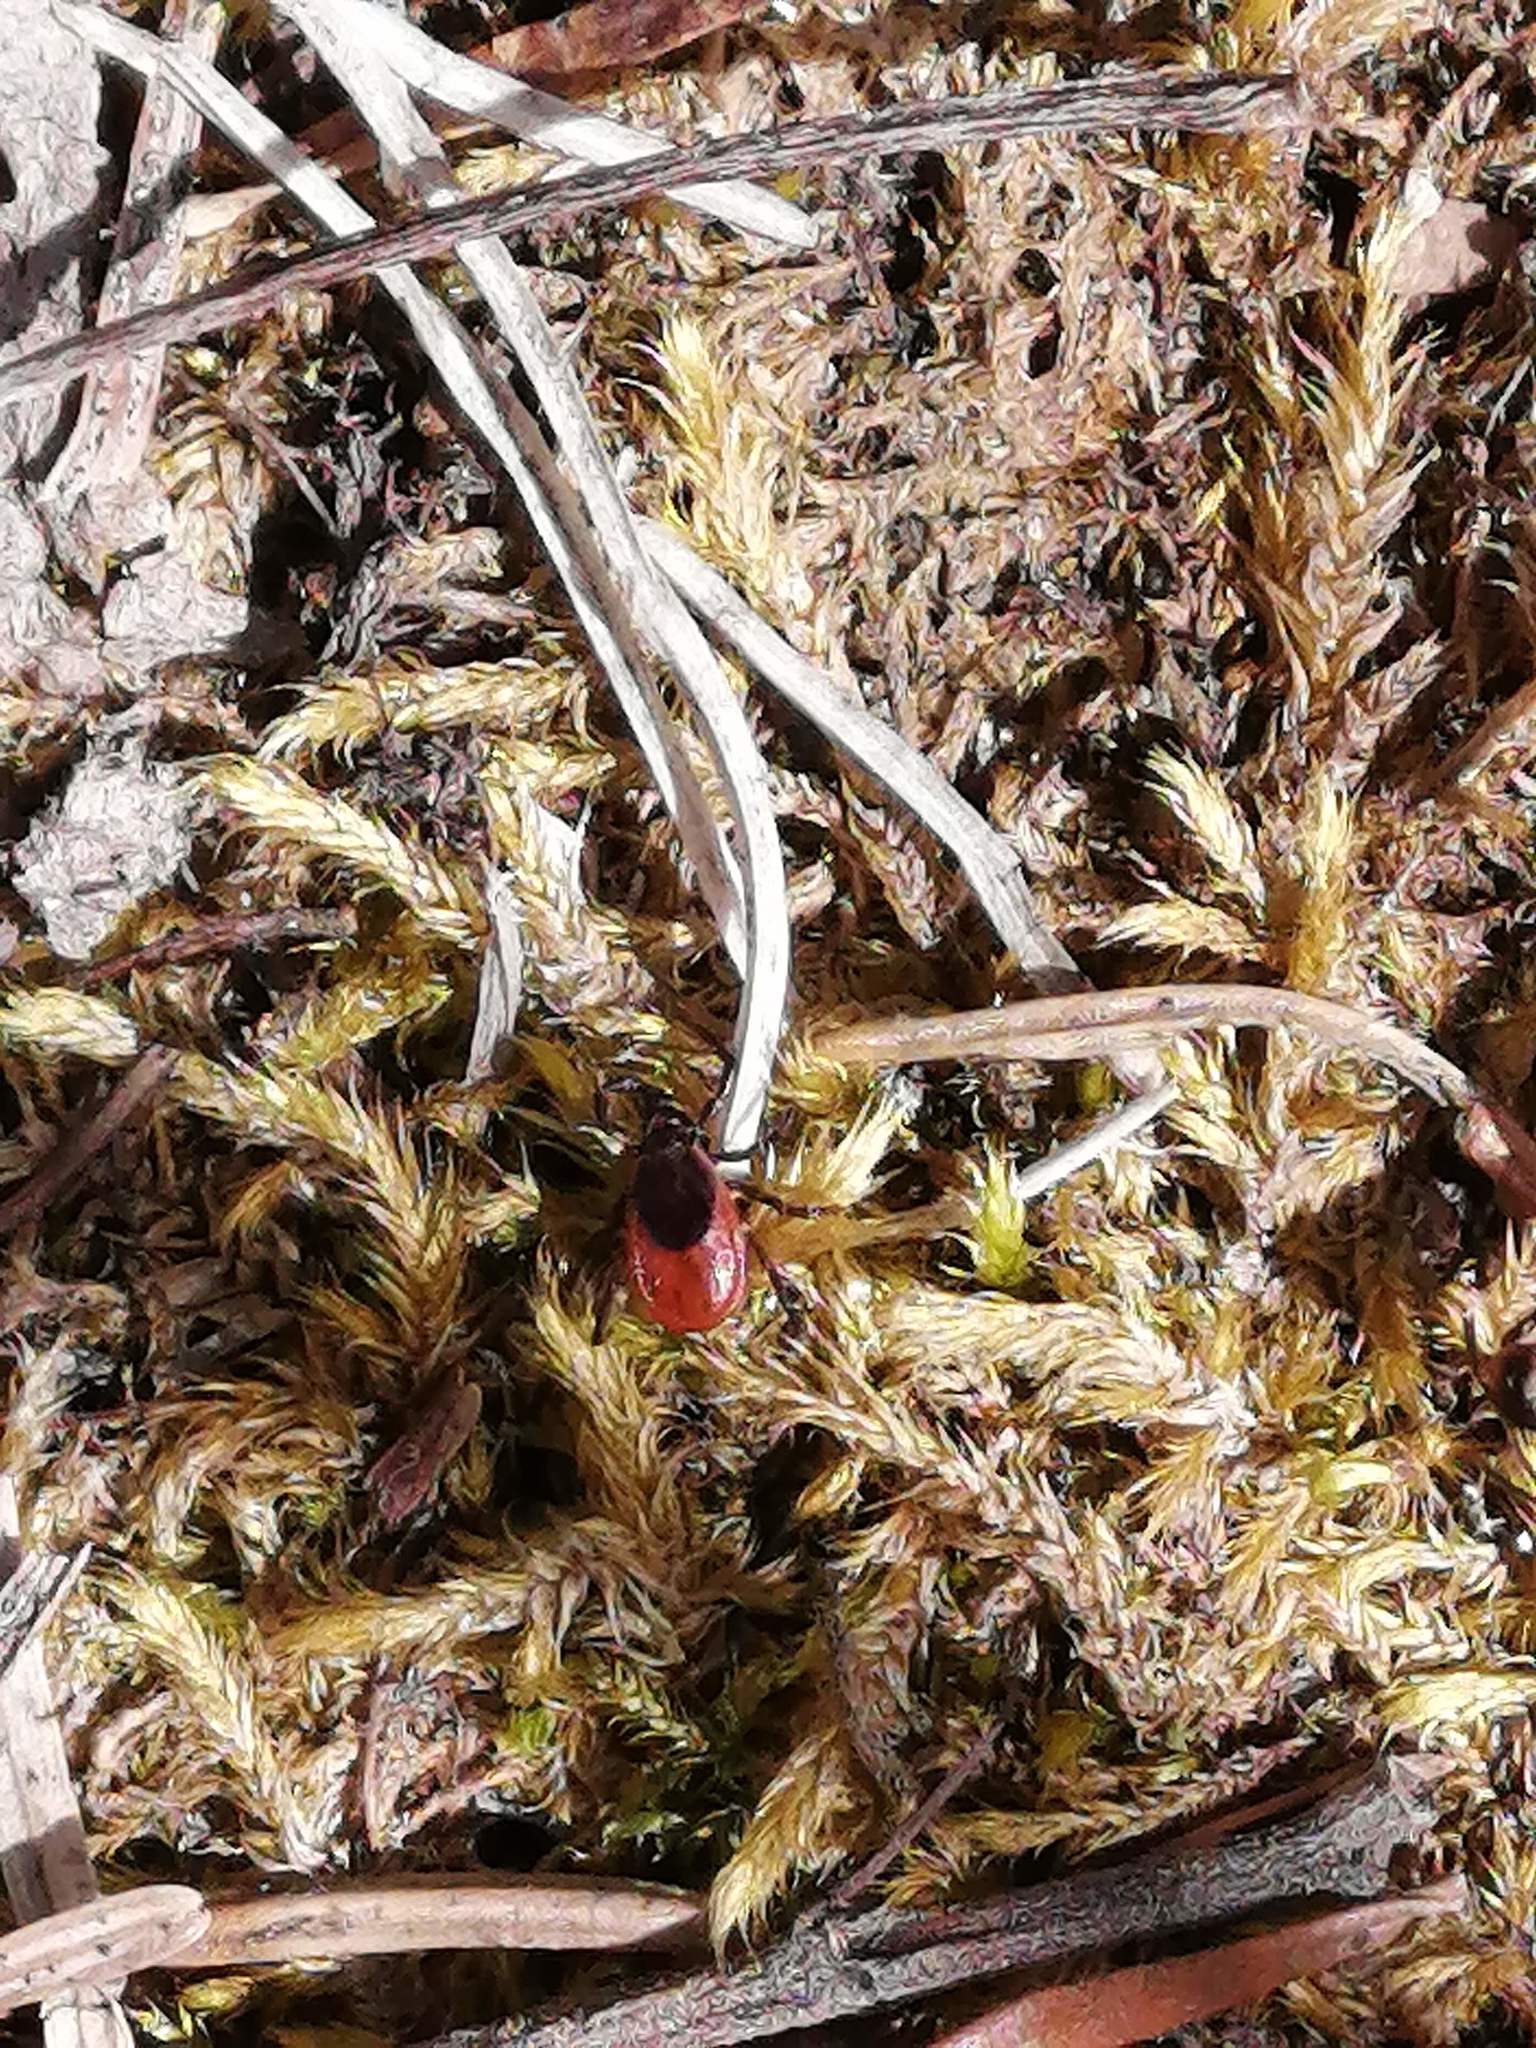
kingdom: Animalia
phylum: Arthropoda
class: Arachnida
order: Ixodida
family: Ixodidae
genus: Ixodes
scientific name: Ixodes persulcatus
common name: Taiga tick
